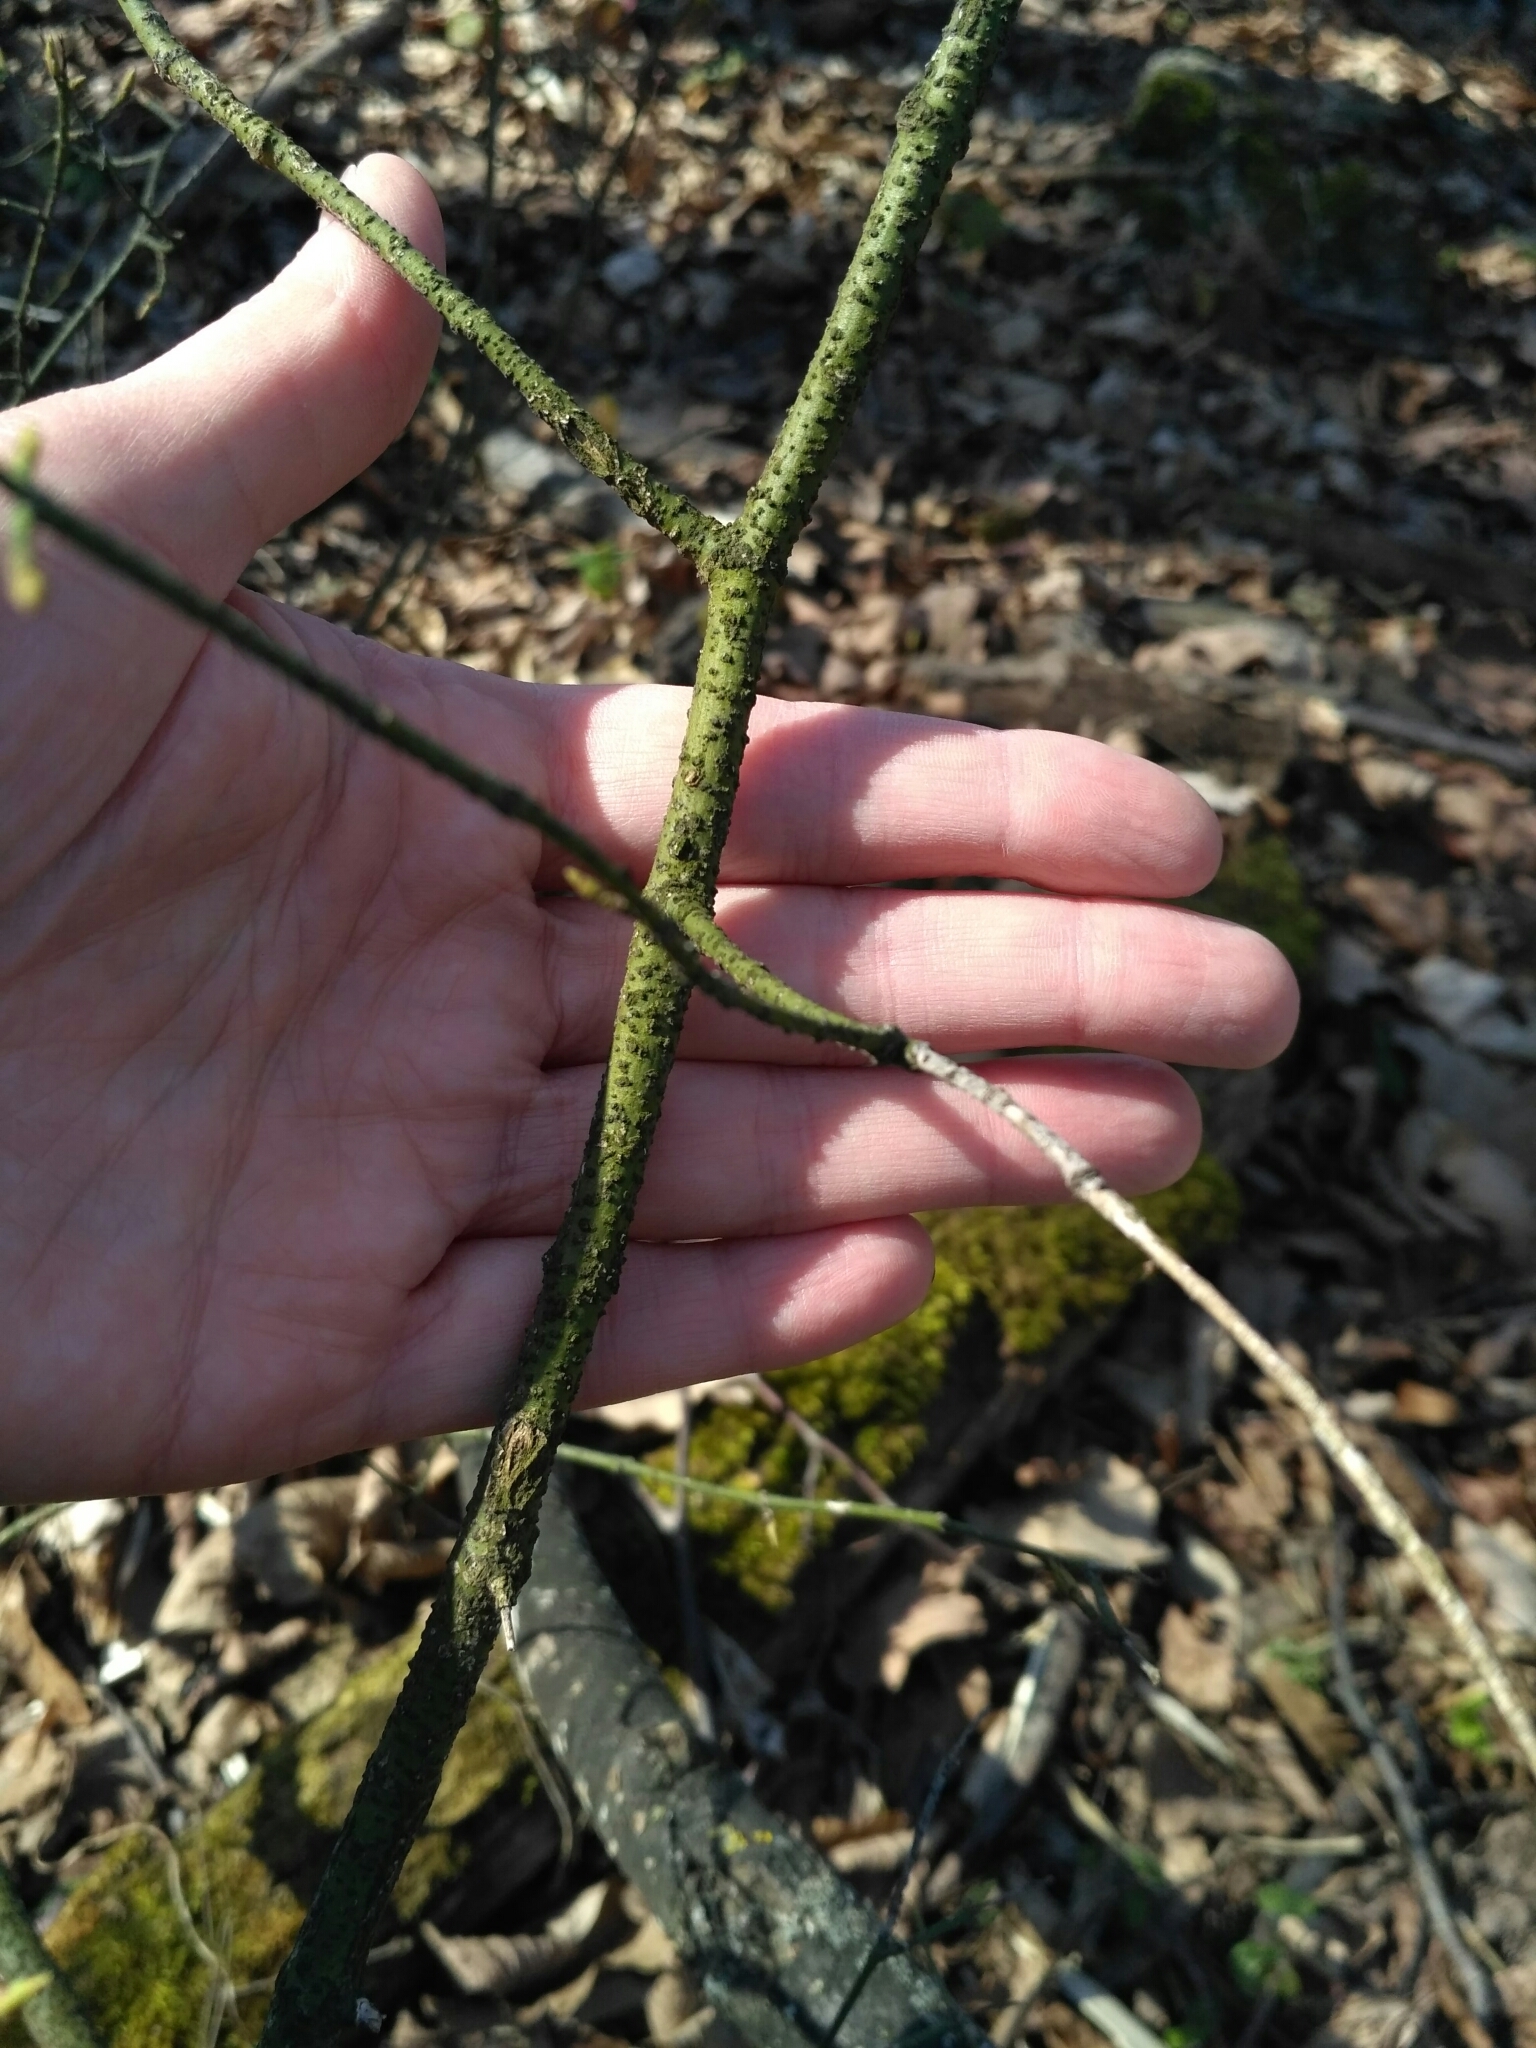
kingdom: Plantae
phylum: Tracheophyta
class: Magnoliopsida
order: Celastrales
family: Celastraceae
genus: Euonymus
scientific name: Euonymus verrucosus
